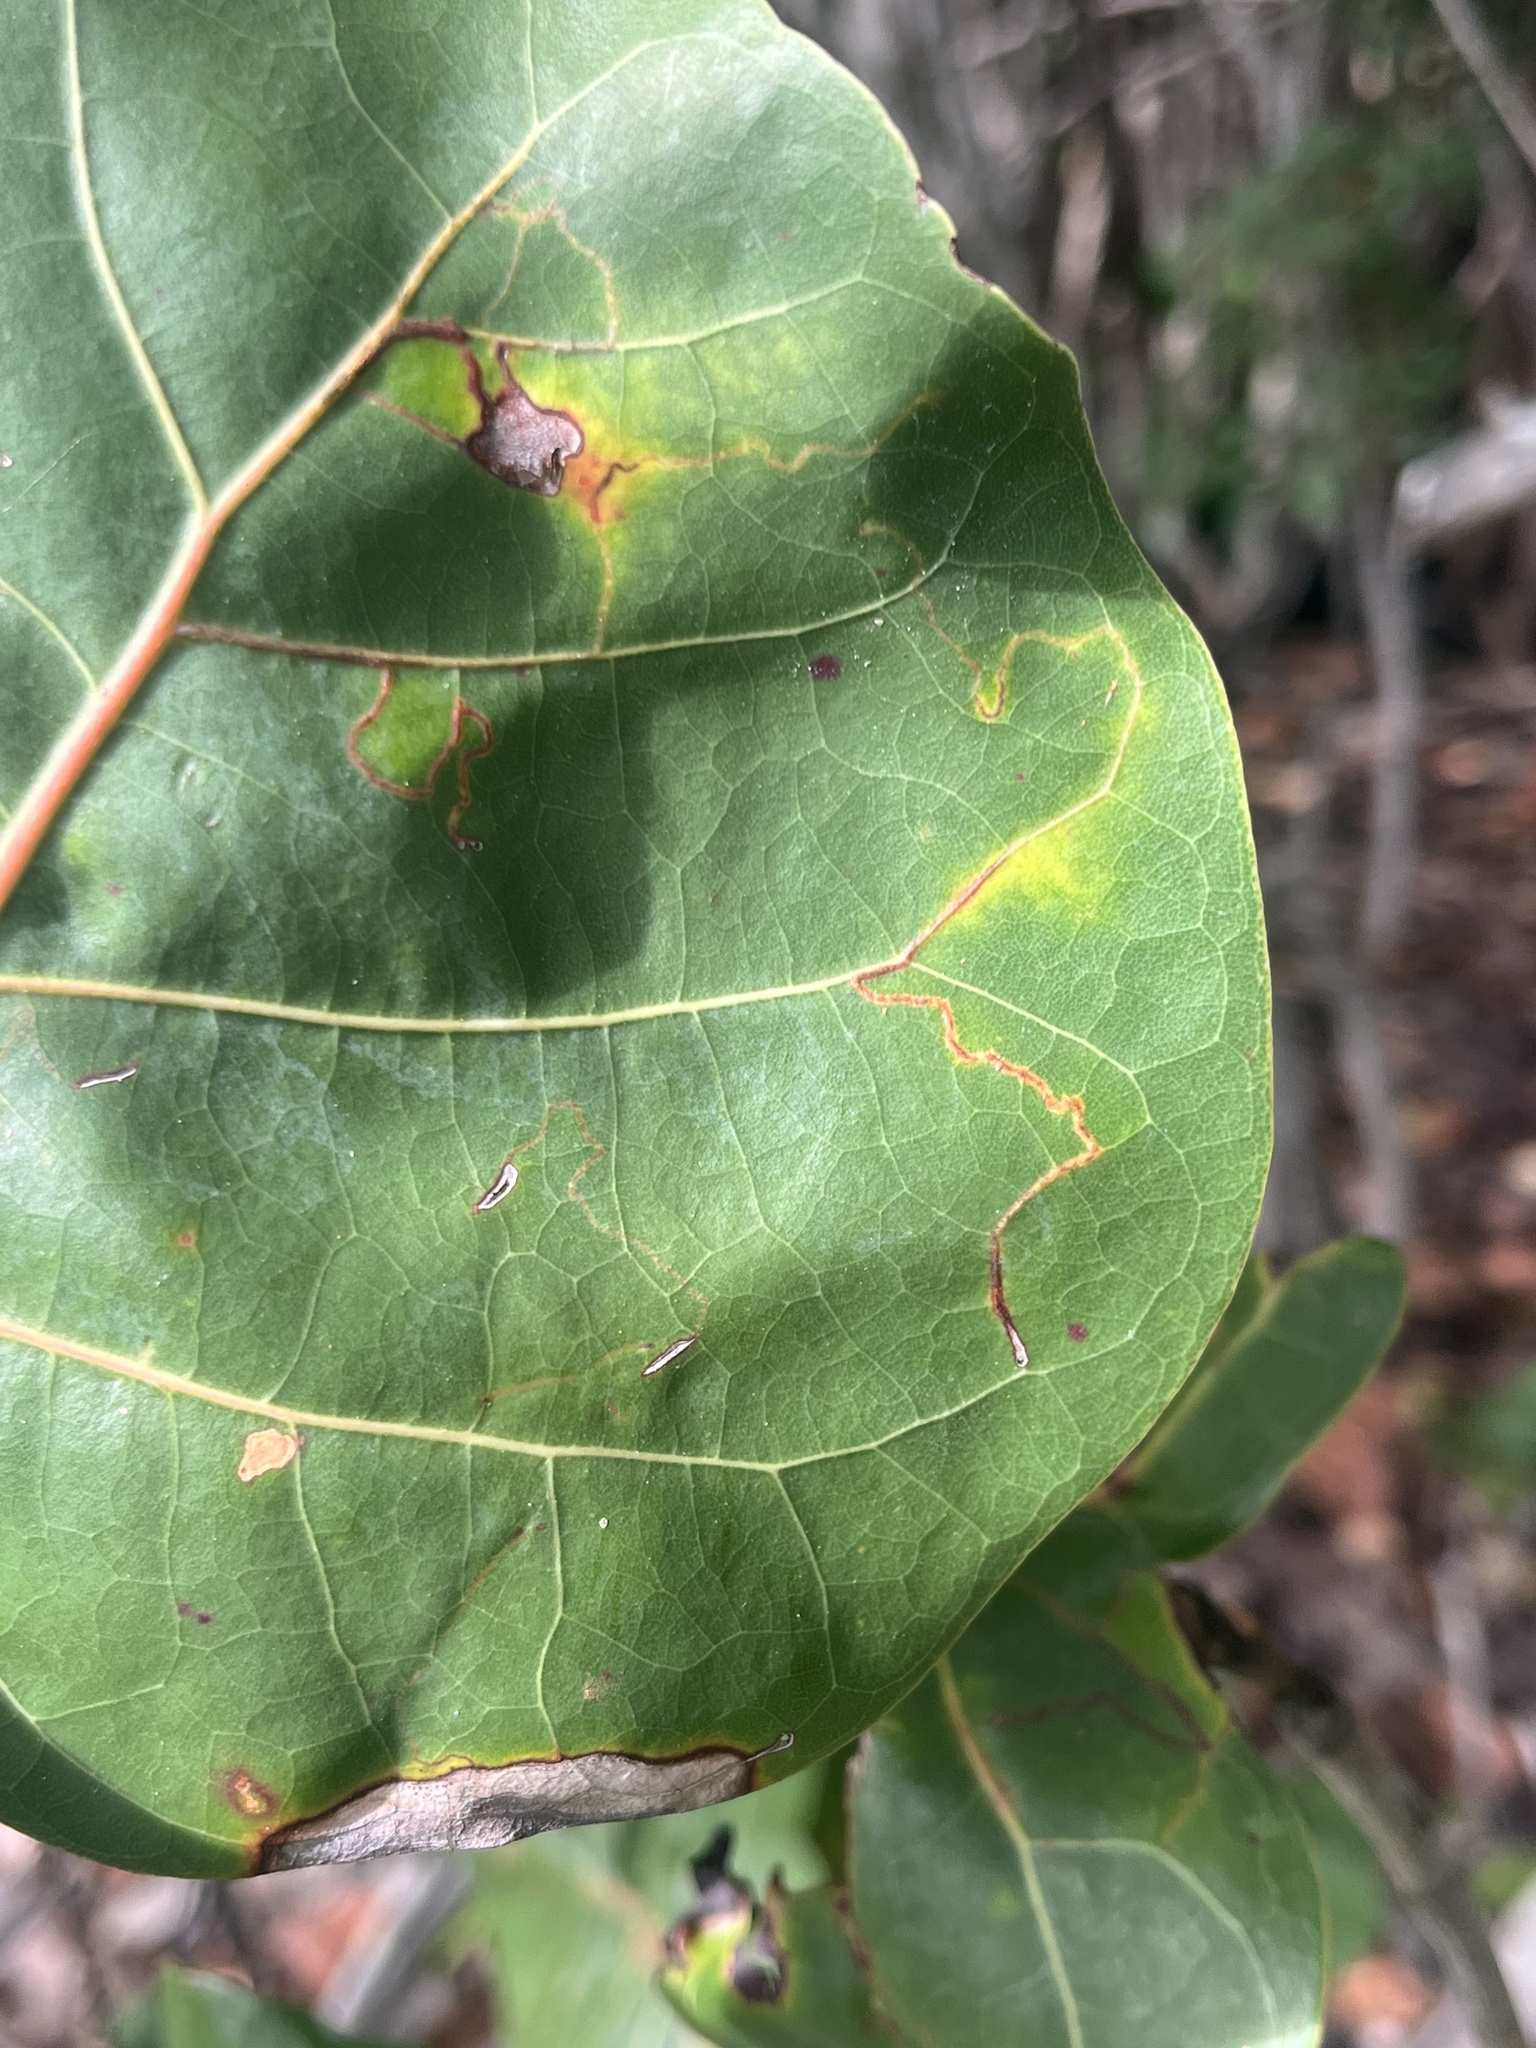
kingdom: Animalia
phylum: Arthropoda
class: Insecta
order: Lepidoptera
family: Nepticulidae
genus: Enteucha
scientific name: Enteucha basidactyla
